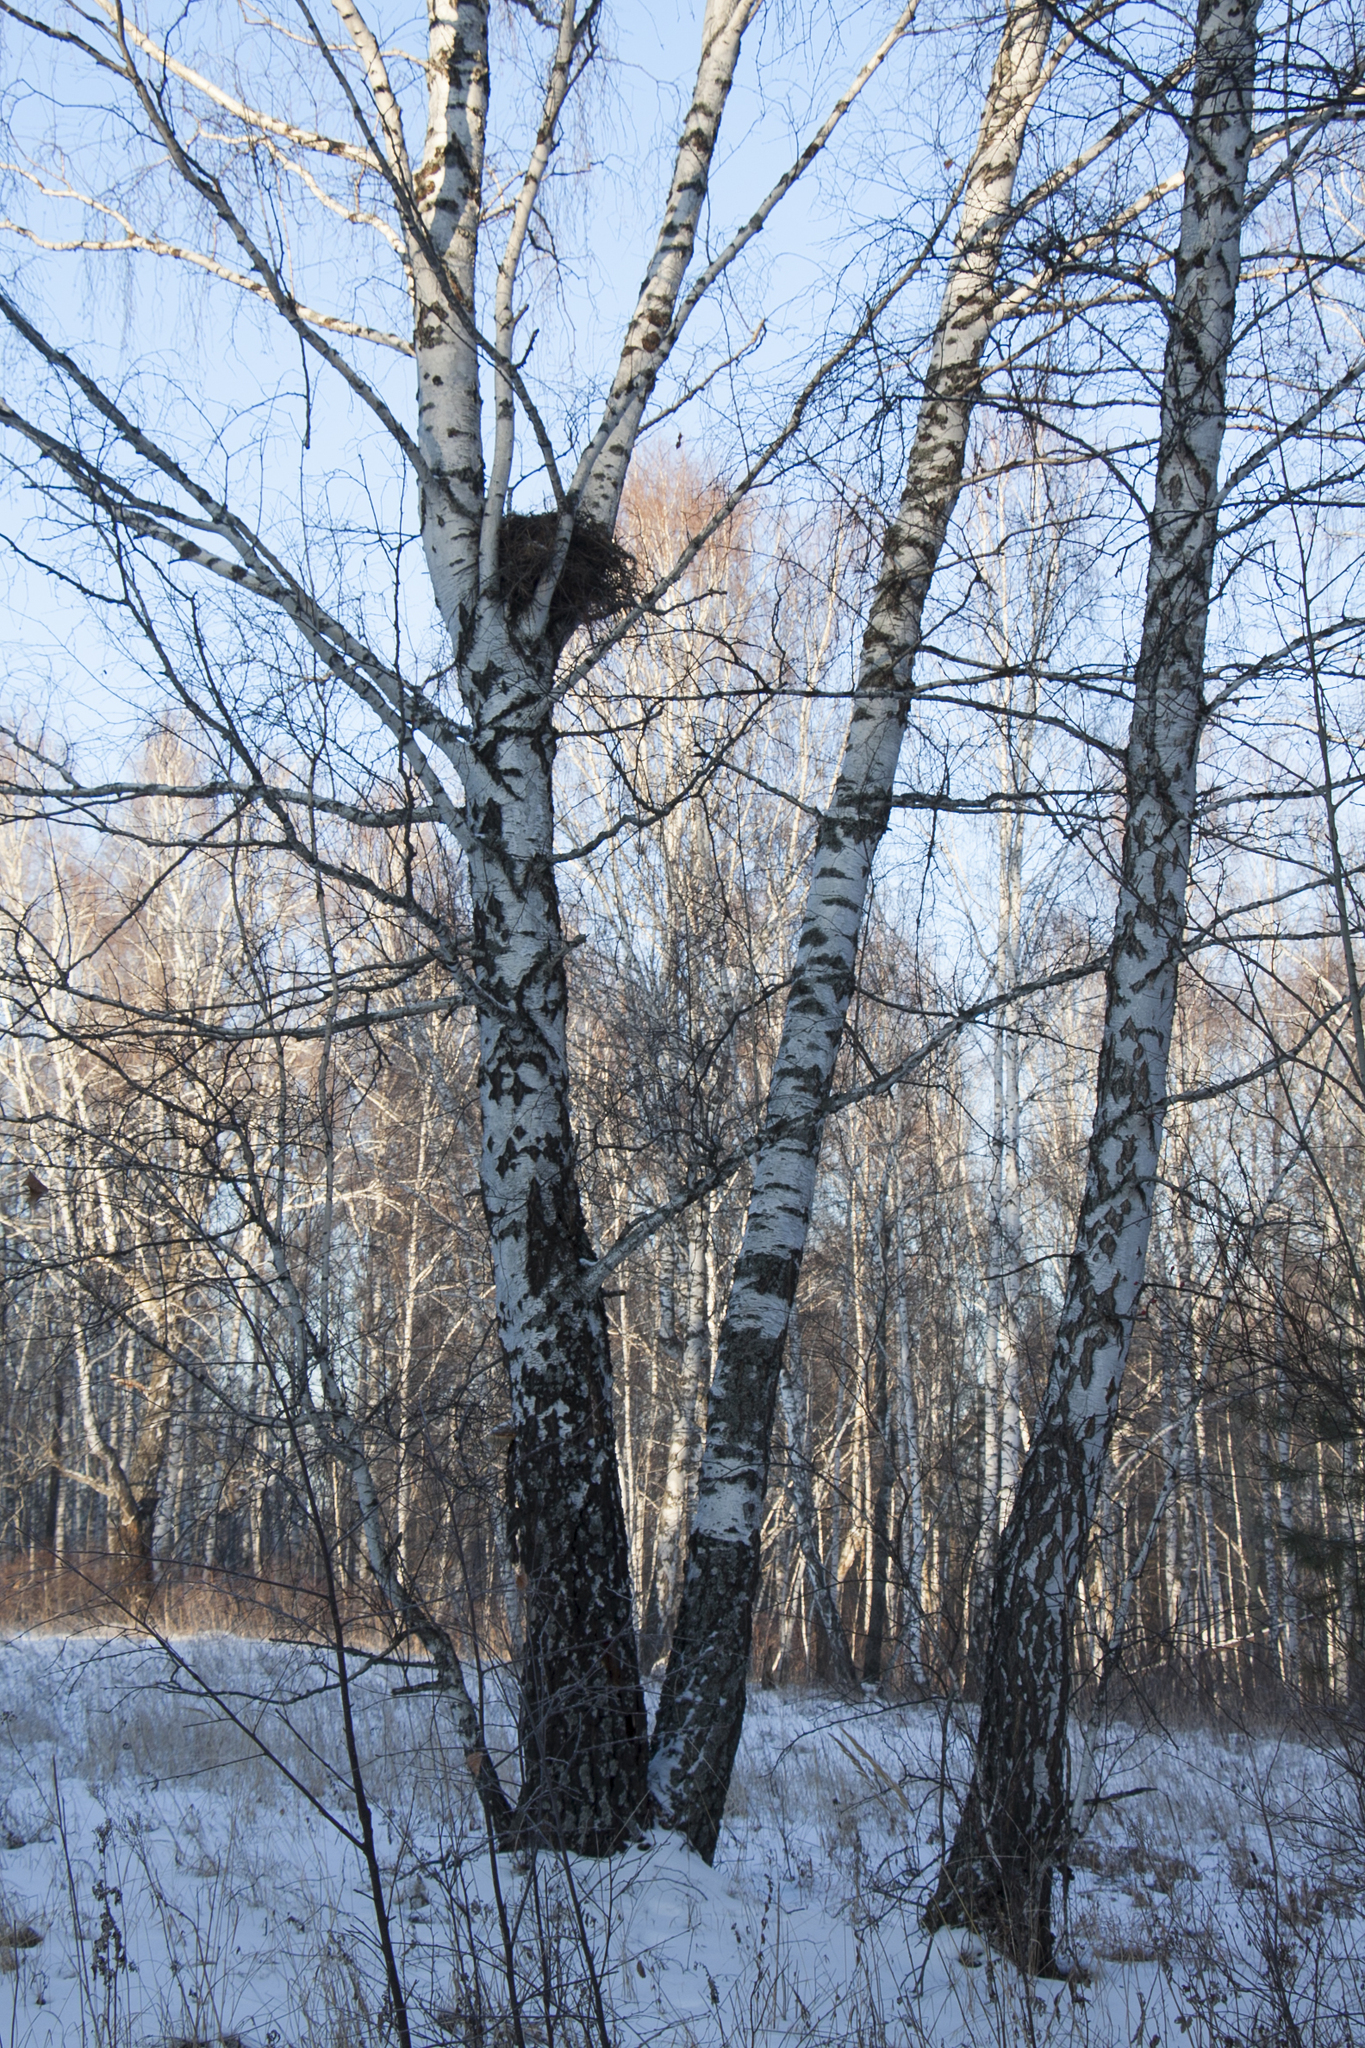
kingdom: Plantae
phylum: Tracheophyta
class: Magnoliopsida
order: Fagales
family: Betulaceae
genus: Betula
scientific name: Betula pendula
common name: Silver birch
